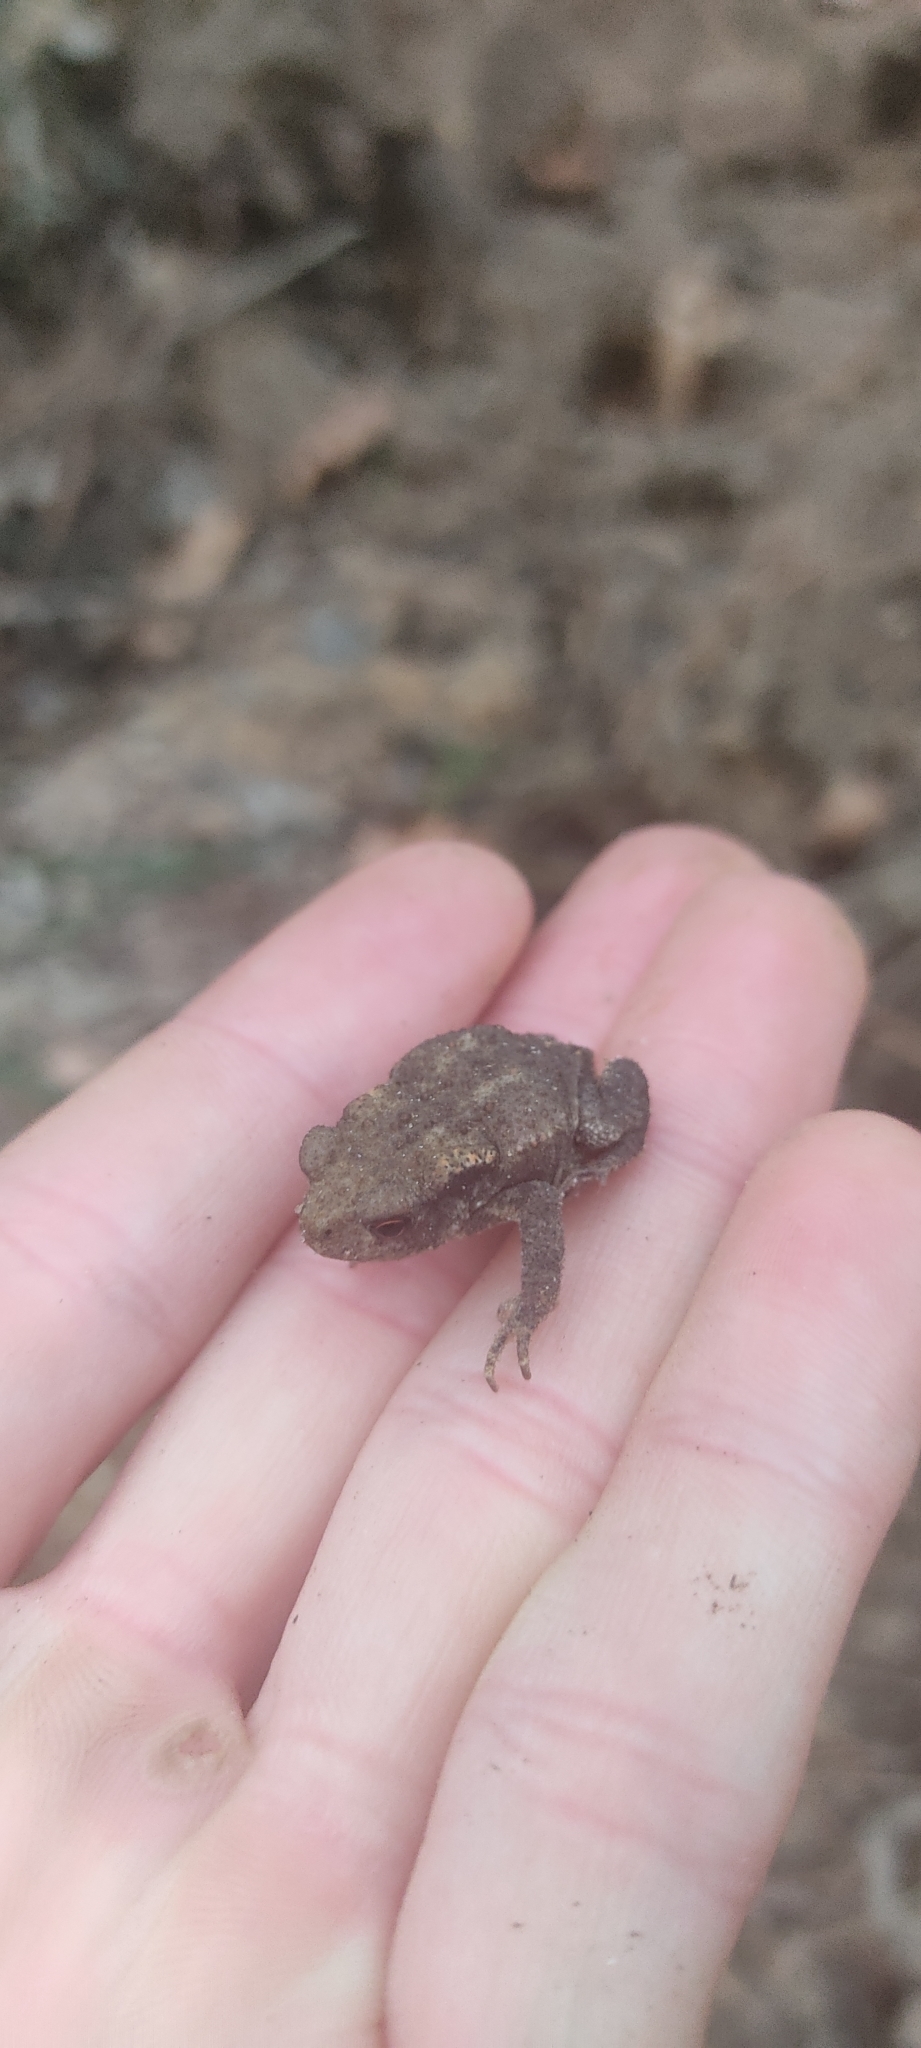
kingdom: Animalia
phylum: Chordata
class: Amphibia
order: Anura
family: Bufonidae
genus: Bufo
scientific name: Bufo spinosus
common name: Western common toad
